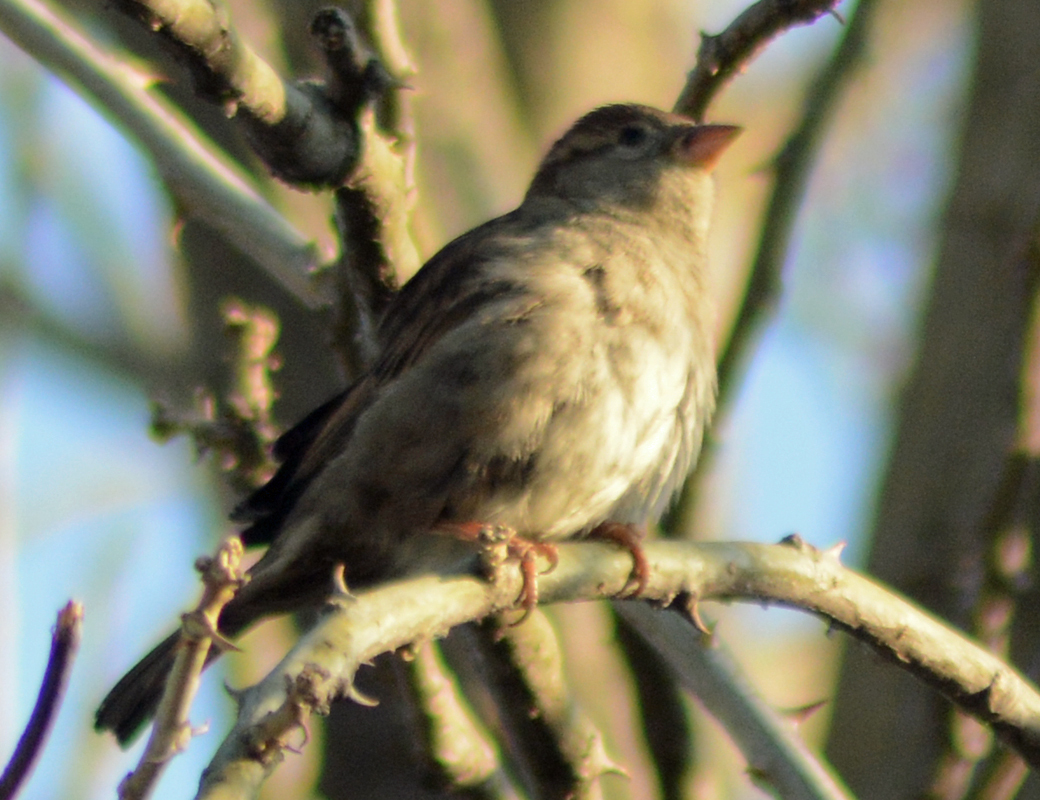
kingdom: Animalia
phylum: Chordata
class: Aves
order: Passeriformes
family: Passeridae
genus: Passer
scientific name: Passer domesticus
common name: House sparrow
